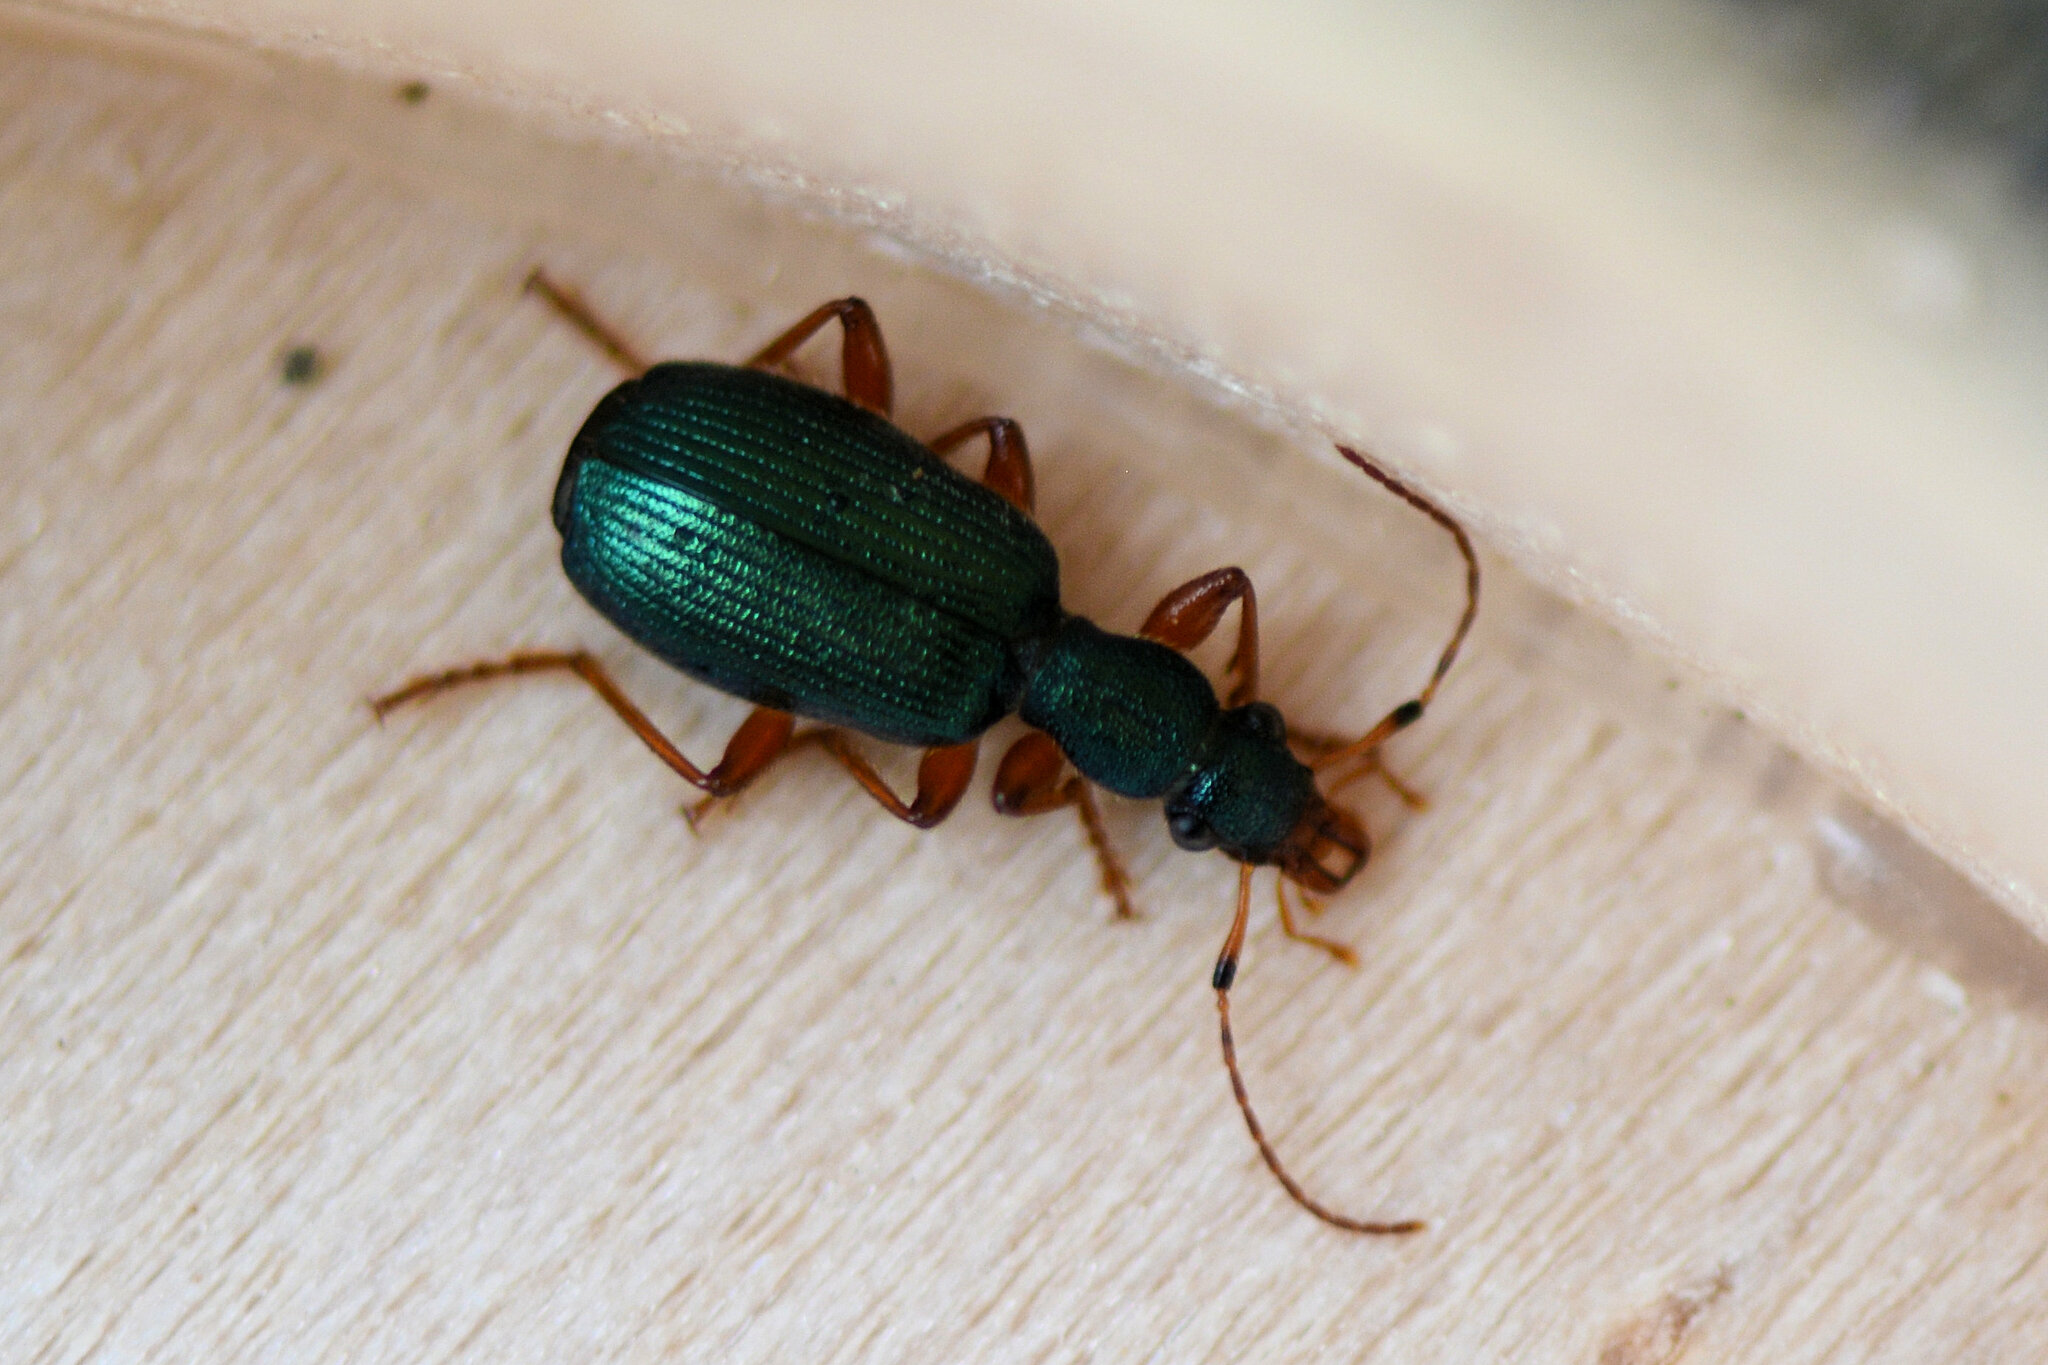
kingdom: Animalia
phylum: Arthropoda
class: Insecta
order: Coleoptera
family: Carabidae
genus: Drypta
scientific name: Drypta dentata
